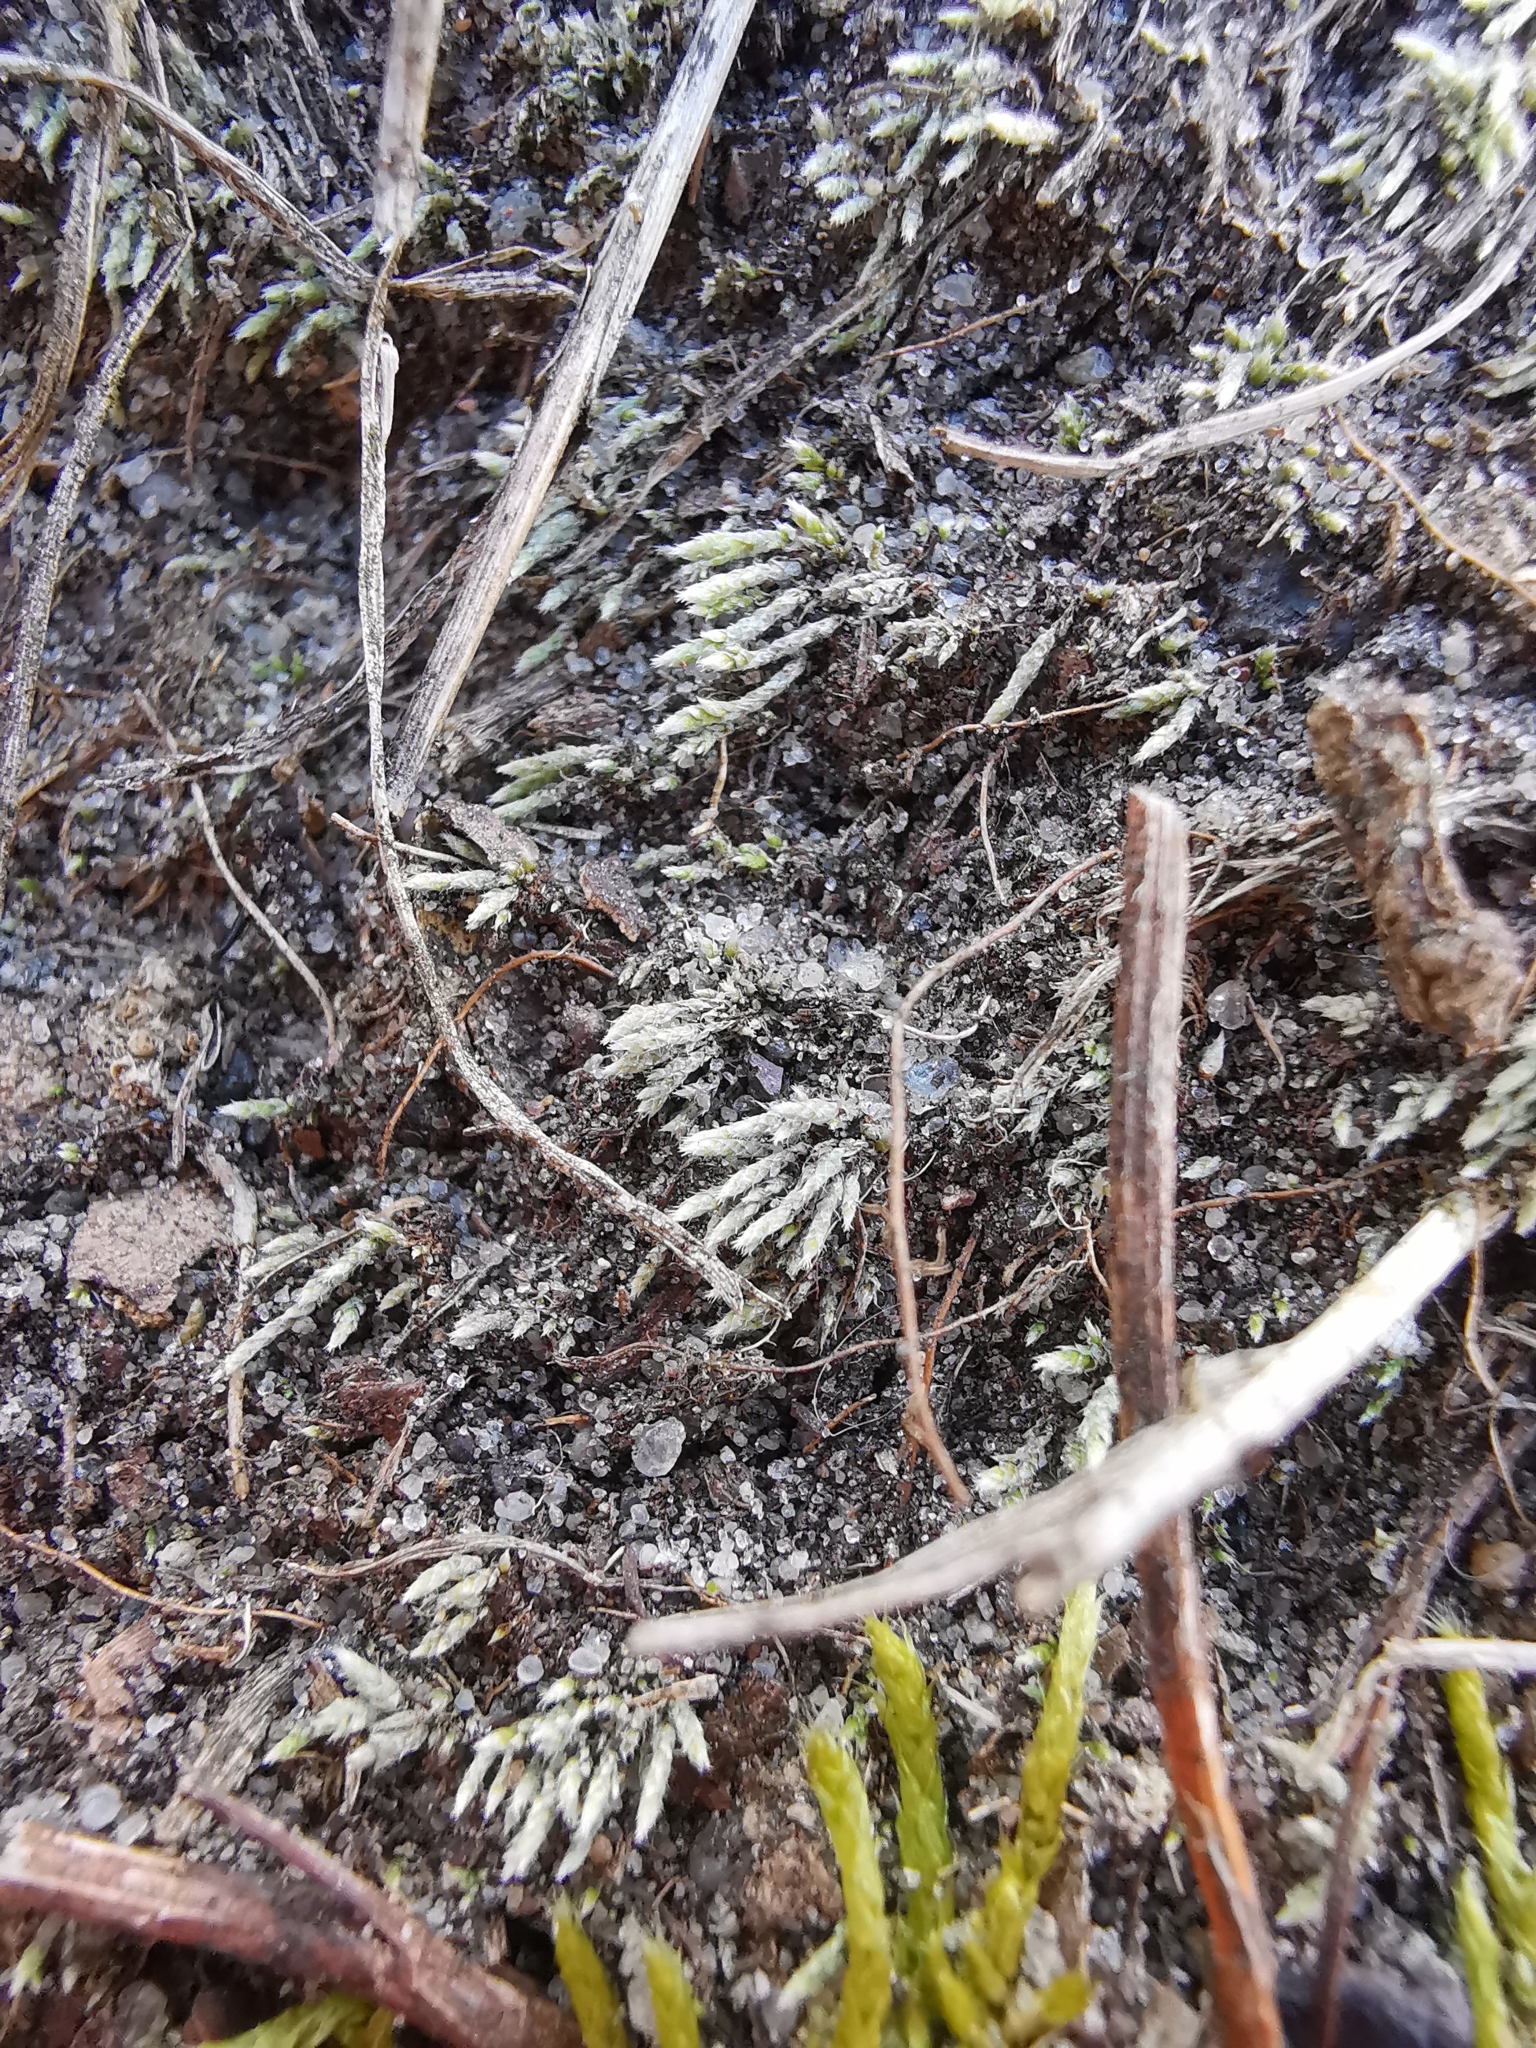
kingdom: Plantae
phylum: Bryophyta
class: Bryopsida
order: Bryales
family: Bryaceae
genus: Bryum
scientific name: Bryum argenteum
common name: Silver-moss
